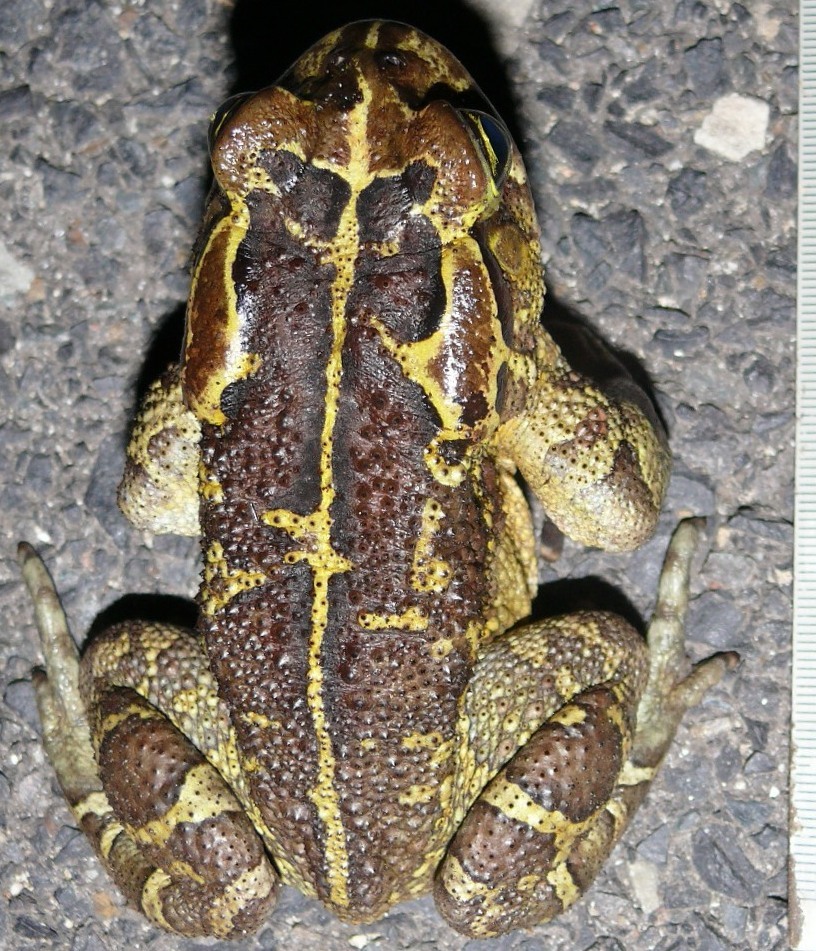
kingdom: Animalia
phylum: Chordata
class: Amphibia
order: Anura
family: Bufonidae
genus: Sclerophrys
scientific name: Sclerophrys pantherina
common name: Panther toad
